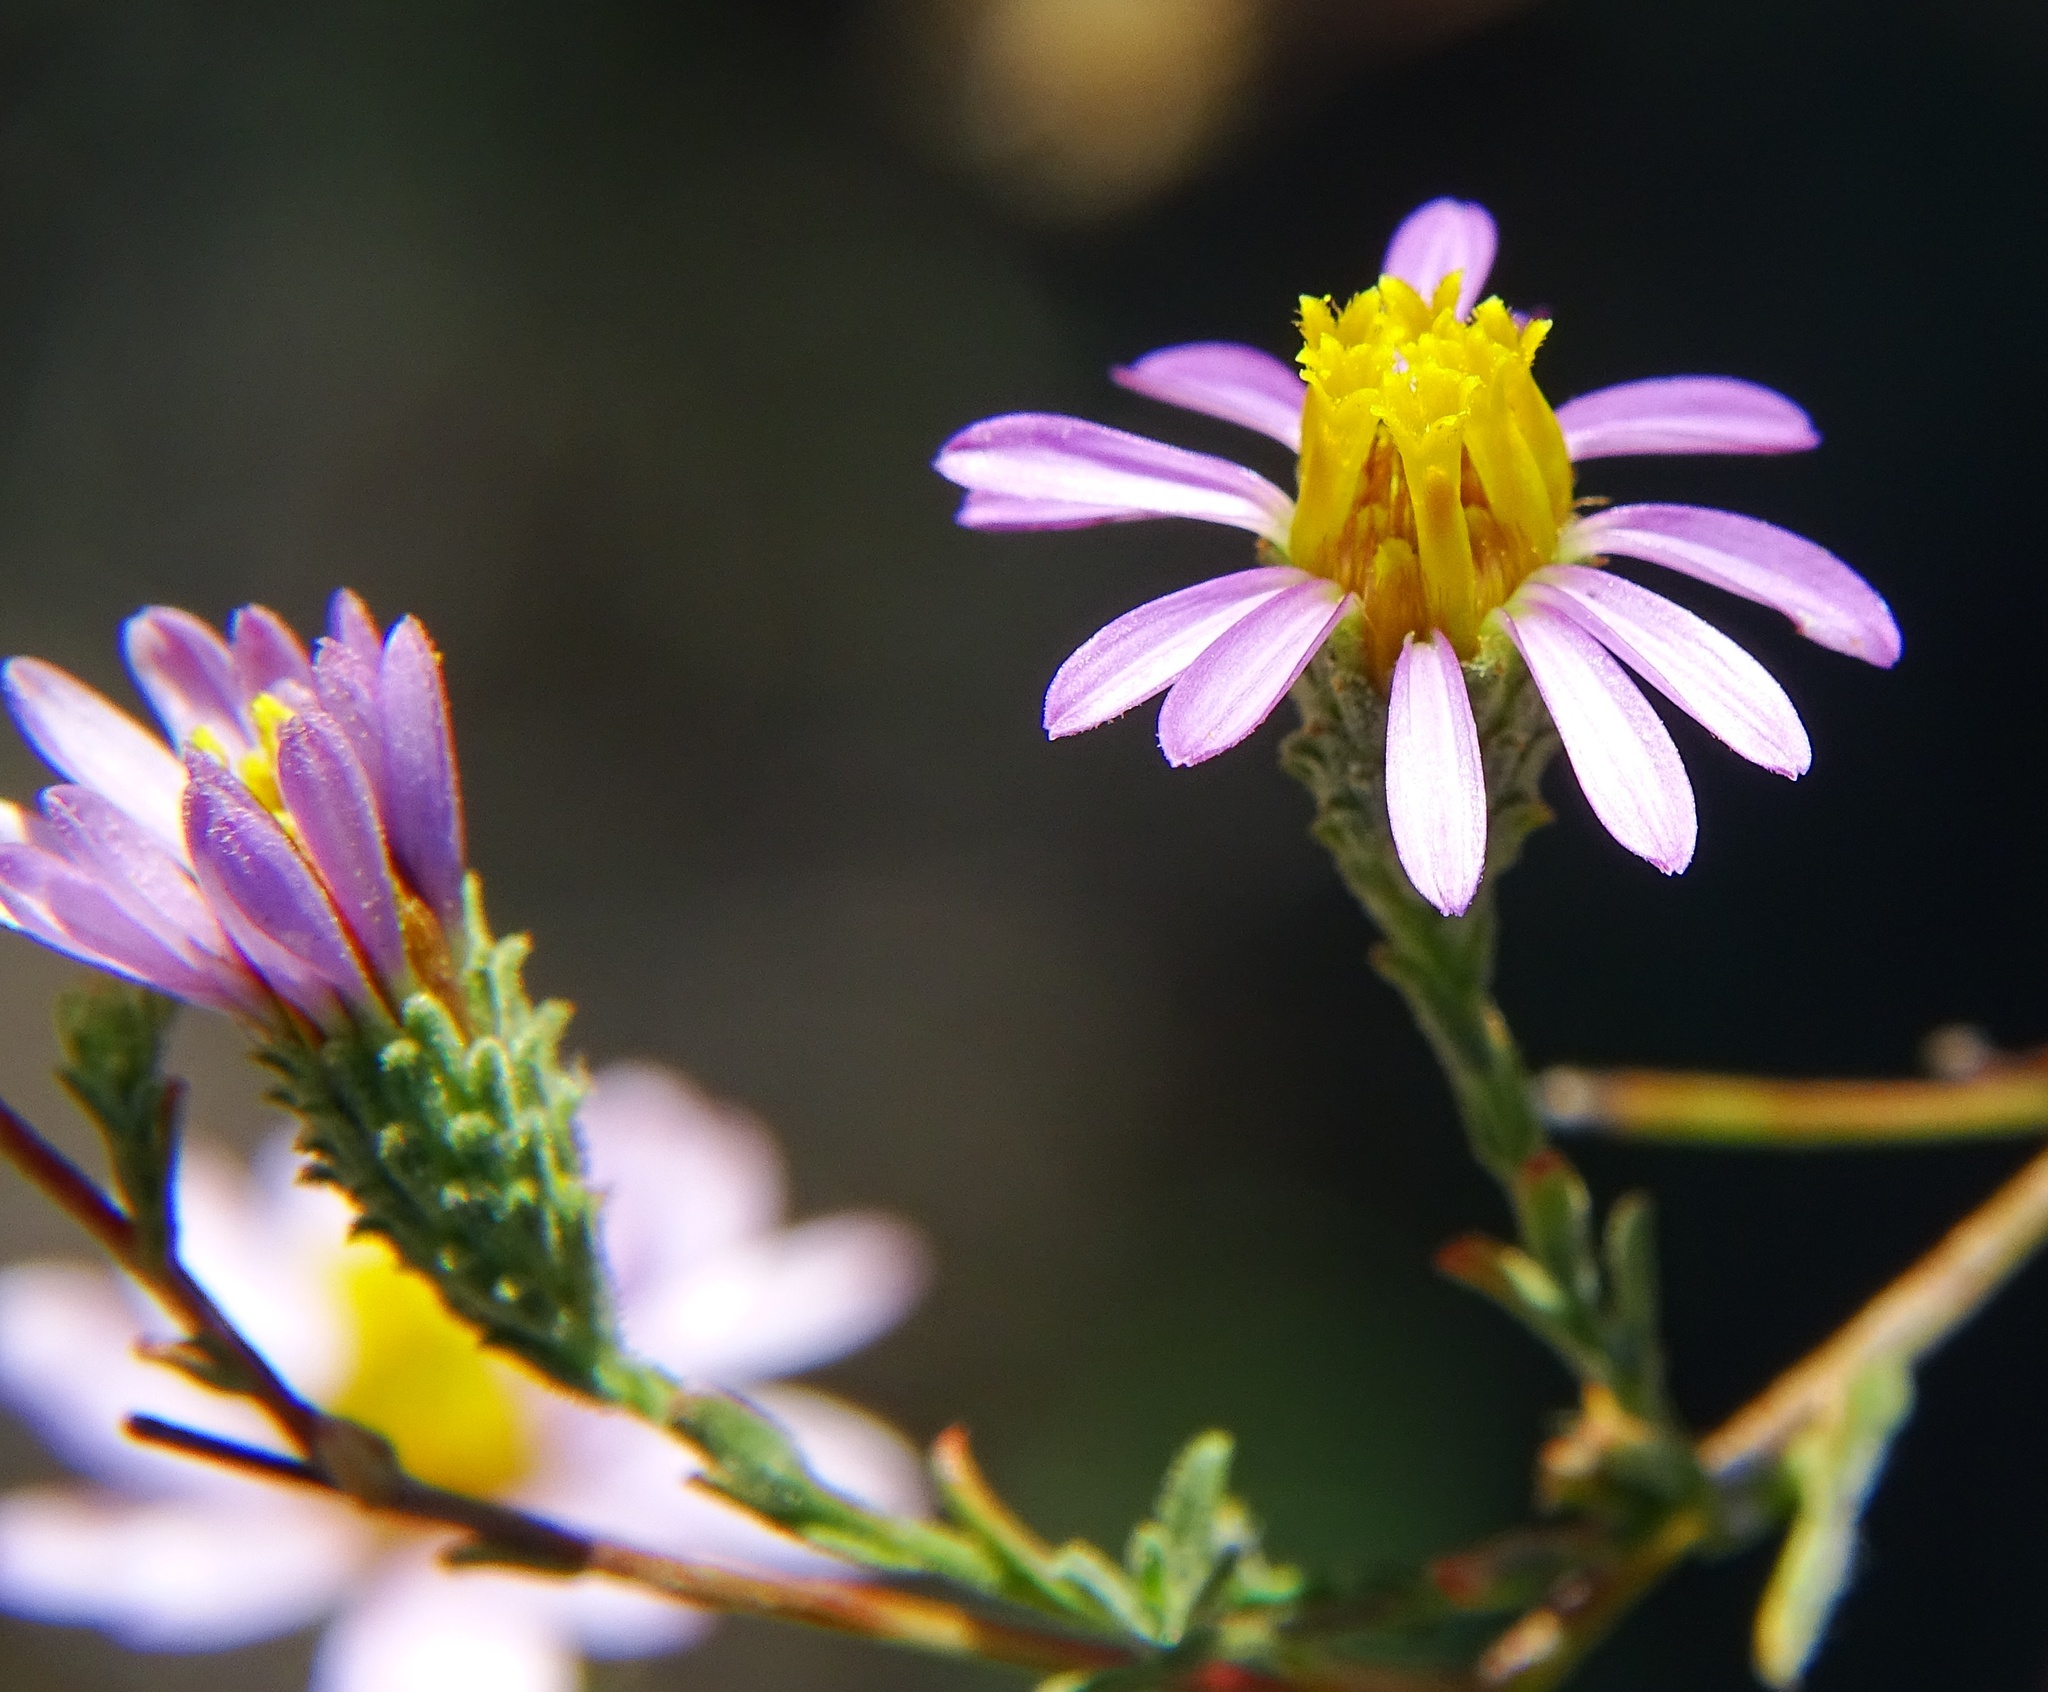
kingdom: Plantae
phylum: Tracheophyta
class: Magnoliopsida
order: Asterales
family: Asteraceae
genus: Corethrogyne
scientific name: Corethrogyne filaginifolia
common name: Sand-aster
